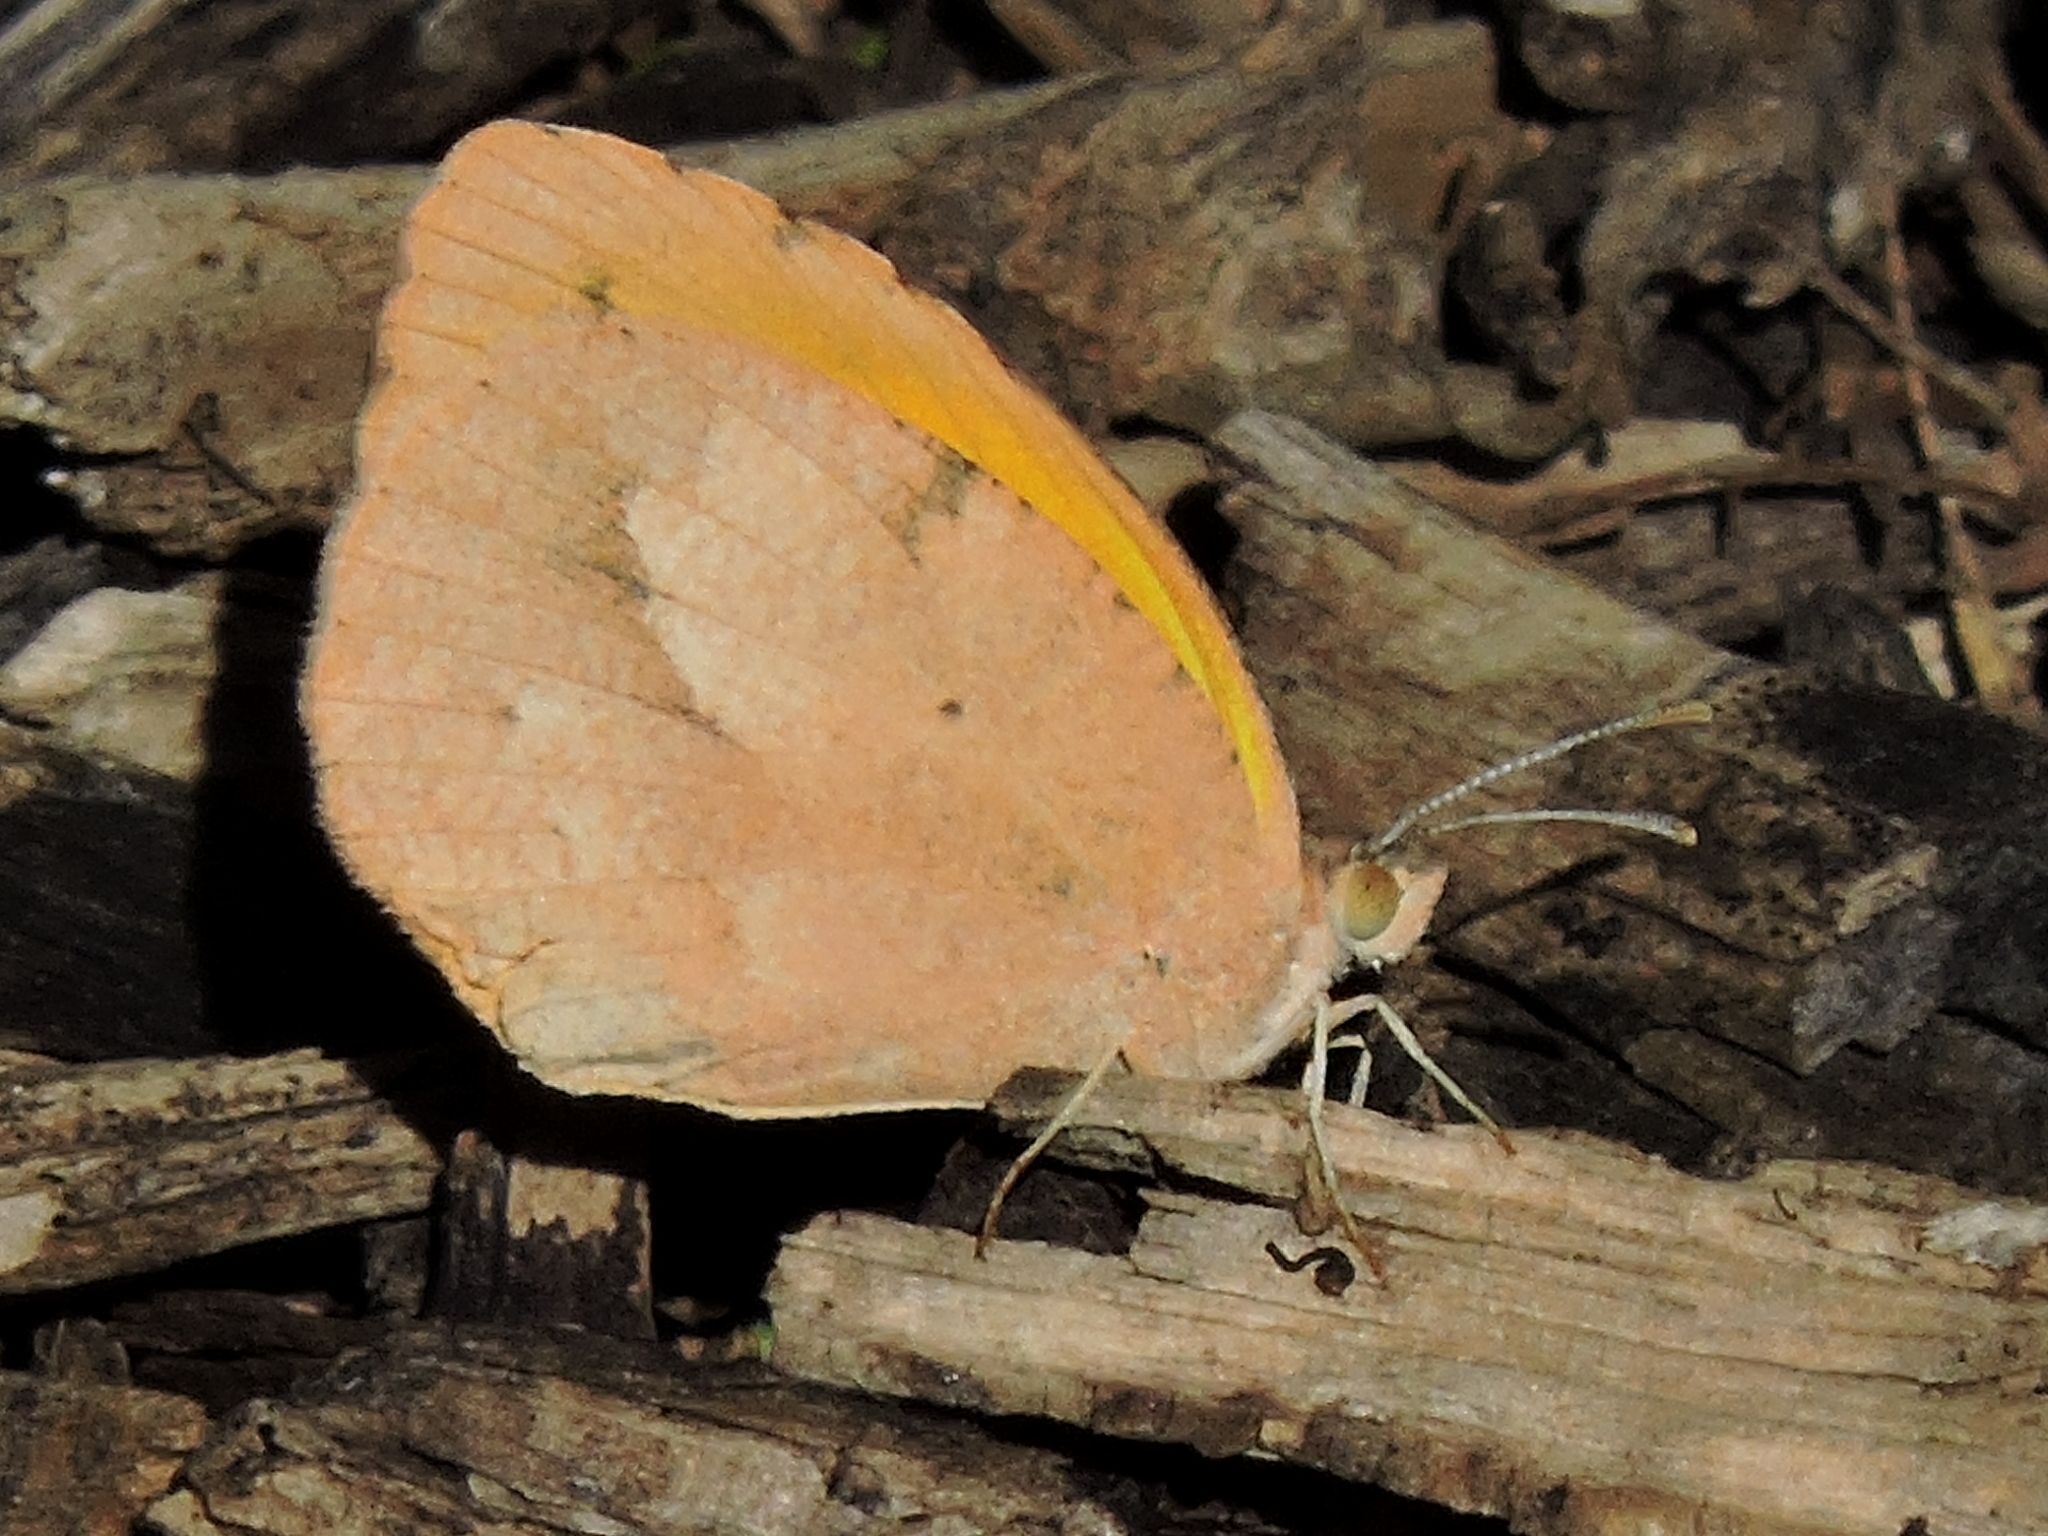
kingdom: Animalia
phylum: Arthropoda
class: Insecta
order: Lepidoptera
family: Pieridae
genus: Abaeis
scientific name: Abaeis nicippe
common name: Sleepy orange
